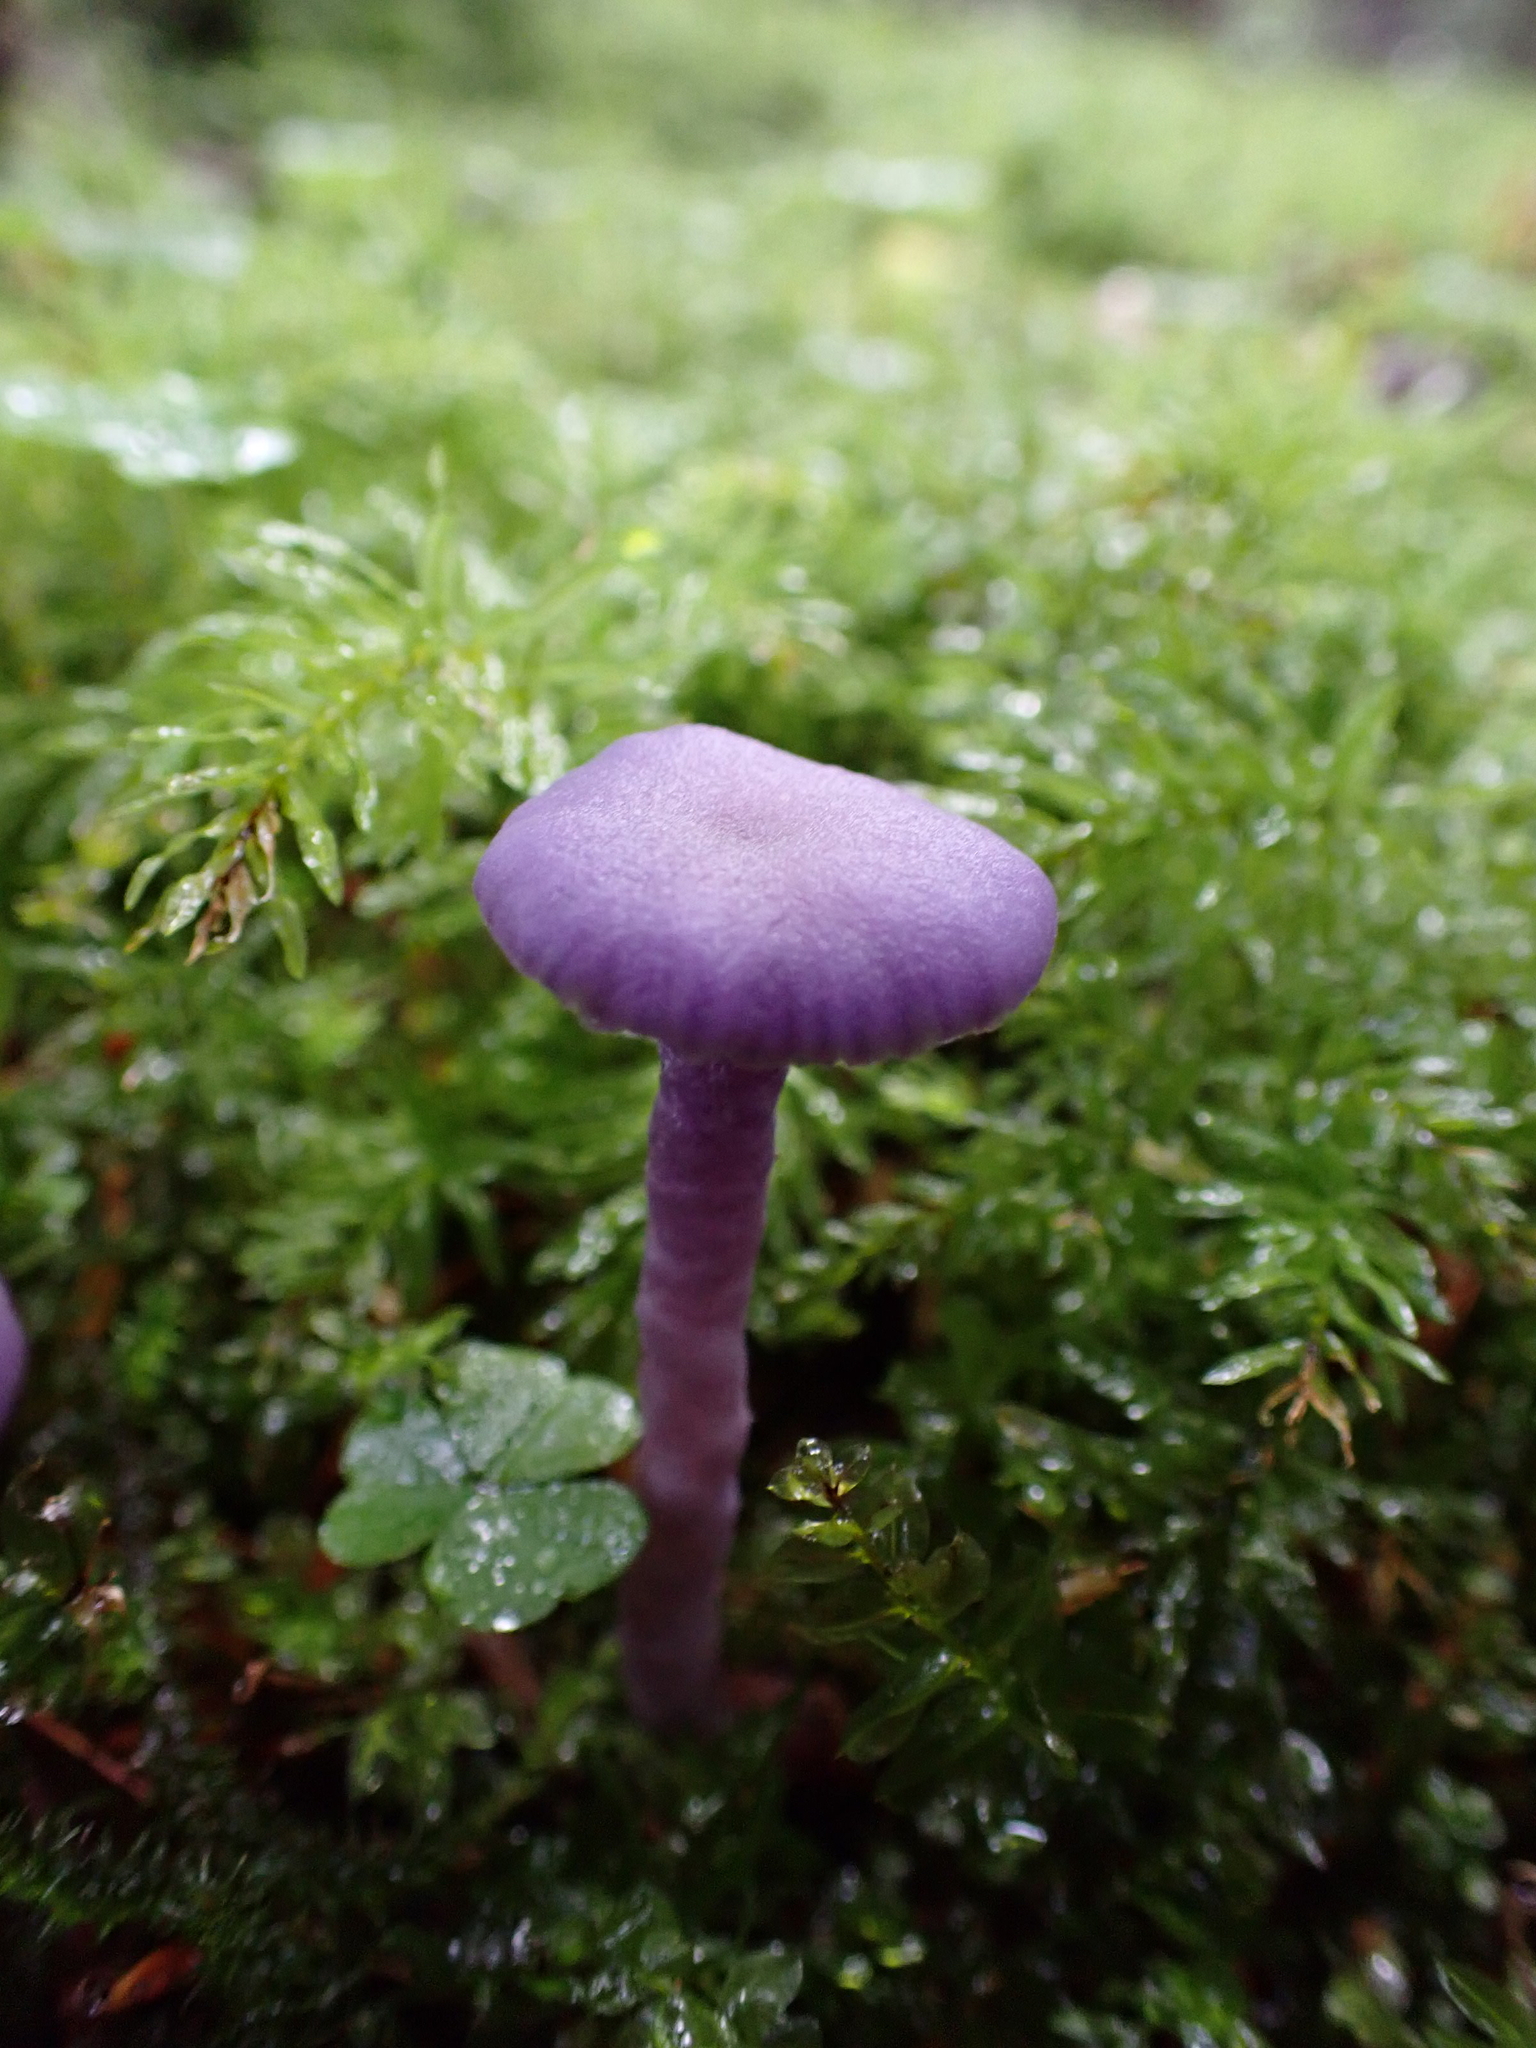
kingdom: Fungi
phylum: Basidiomycota
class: Agaricomycetes
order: Agaricales
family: Hydnangiaceae
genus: Laccaria
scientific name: Laccaria amethystina
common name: Amethyst deceiver
